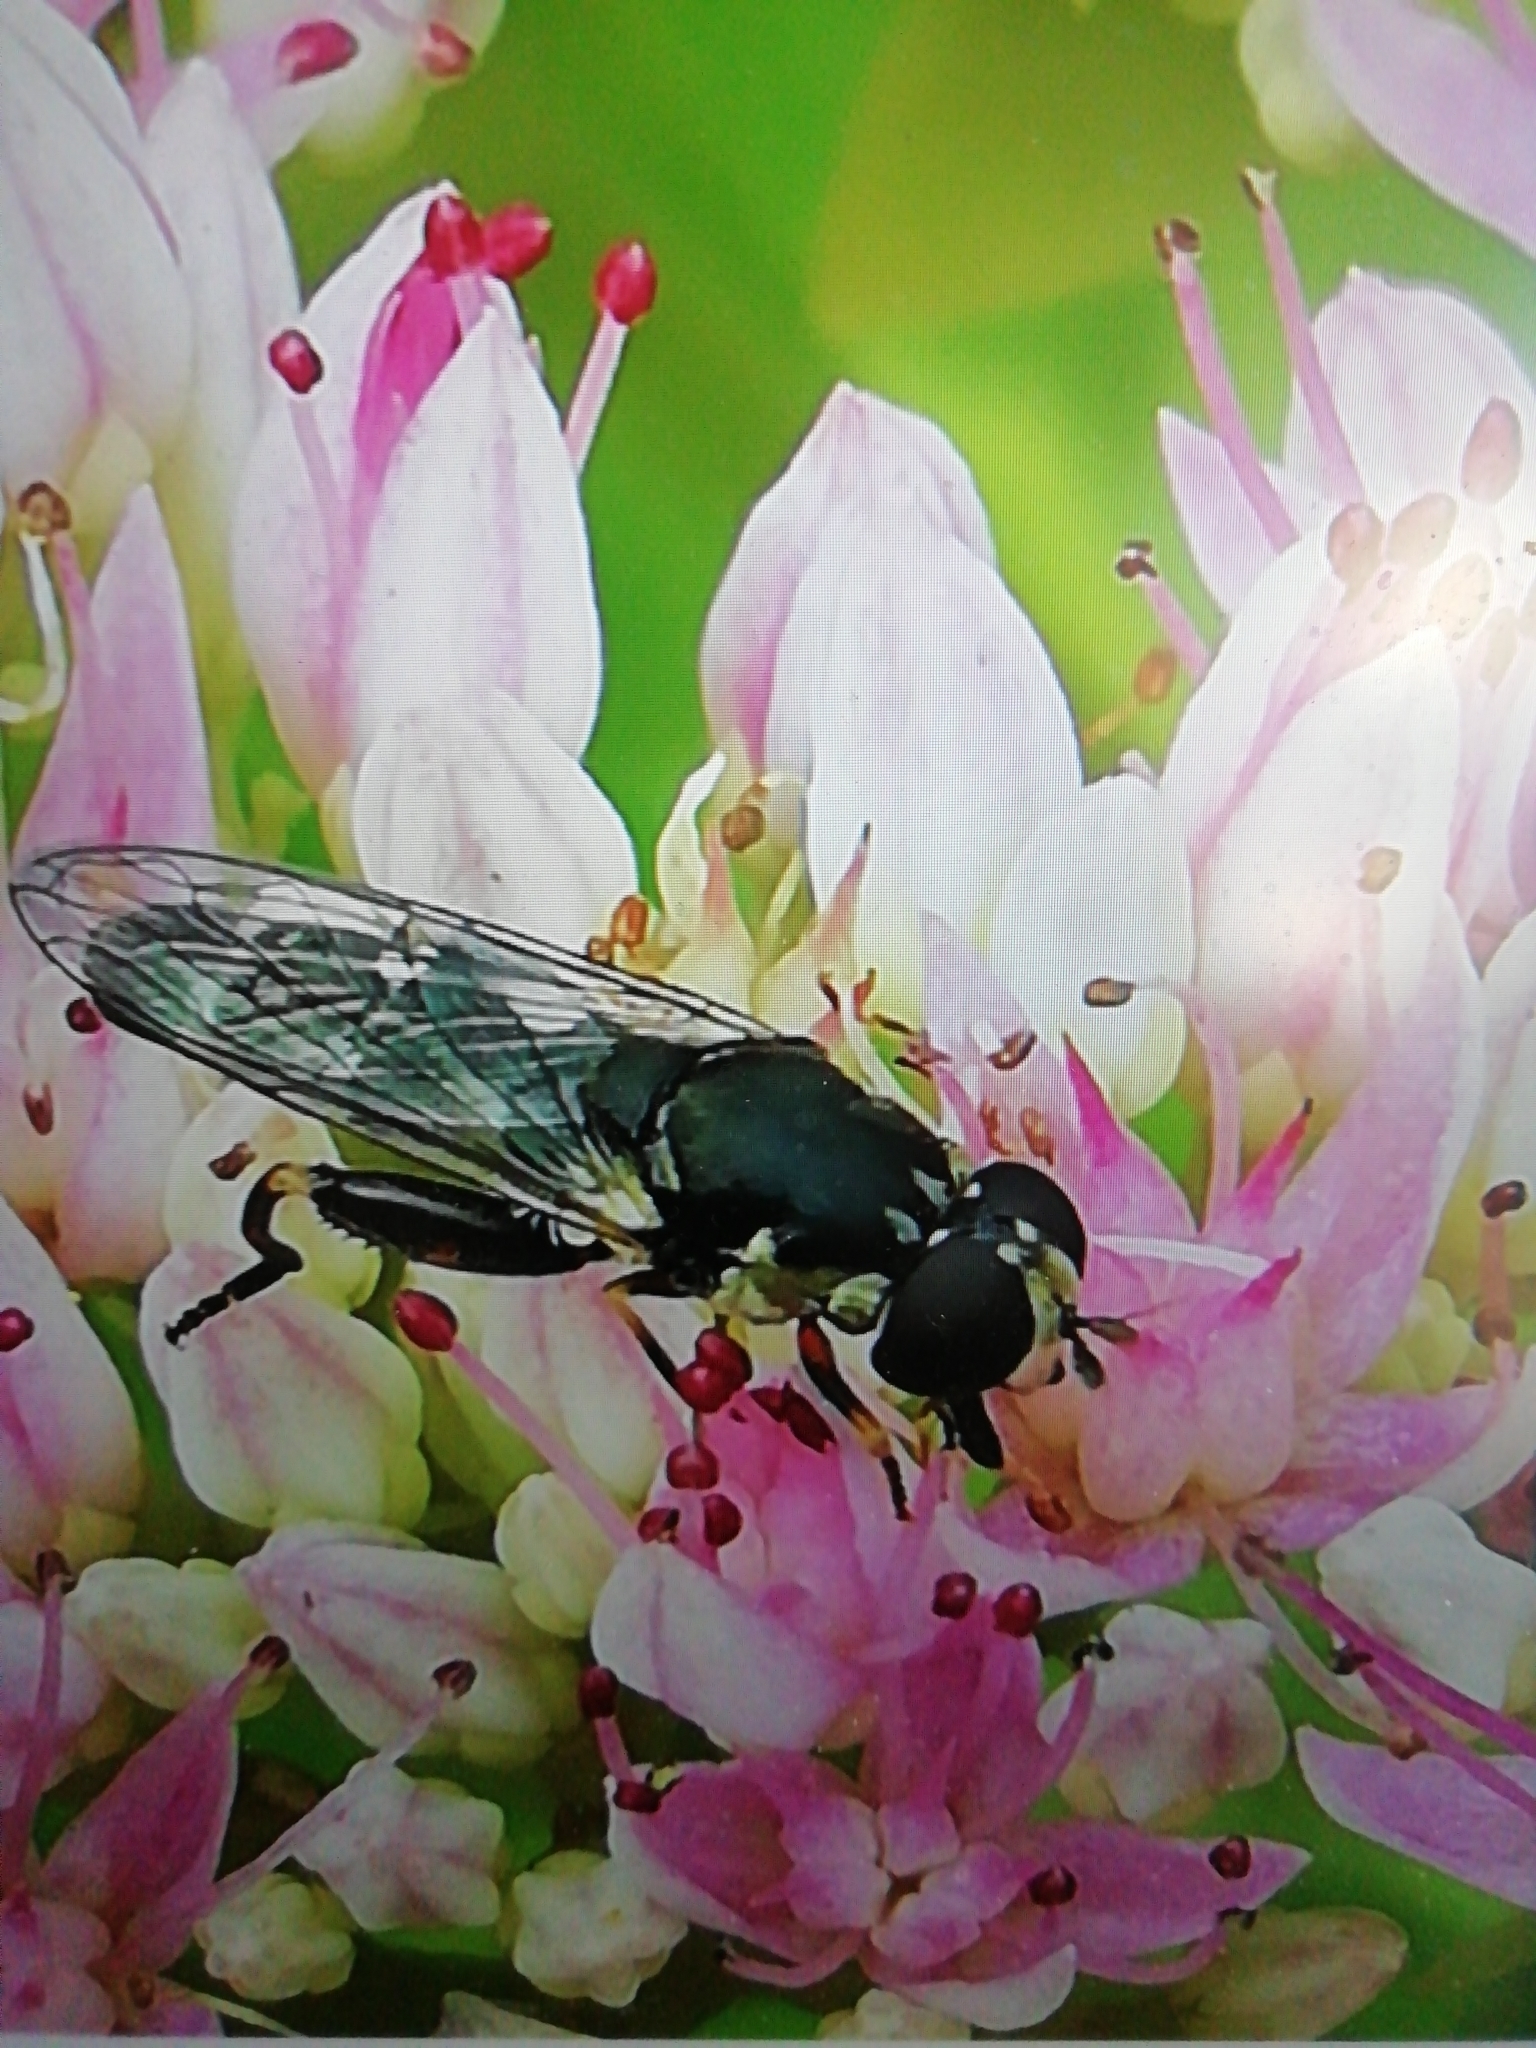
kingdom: Animalia
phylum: Arthropoda
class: Insecta
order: Diptera
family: Syrphidae
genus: Syritta
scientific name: Syritta pipiens
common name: Hover fly
